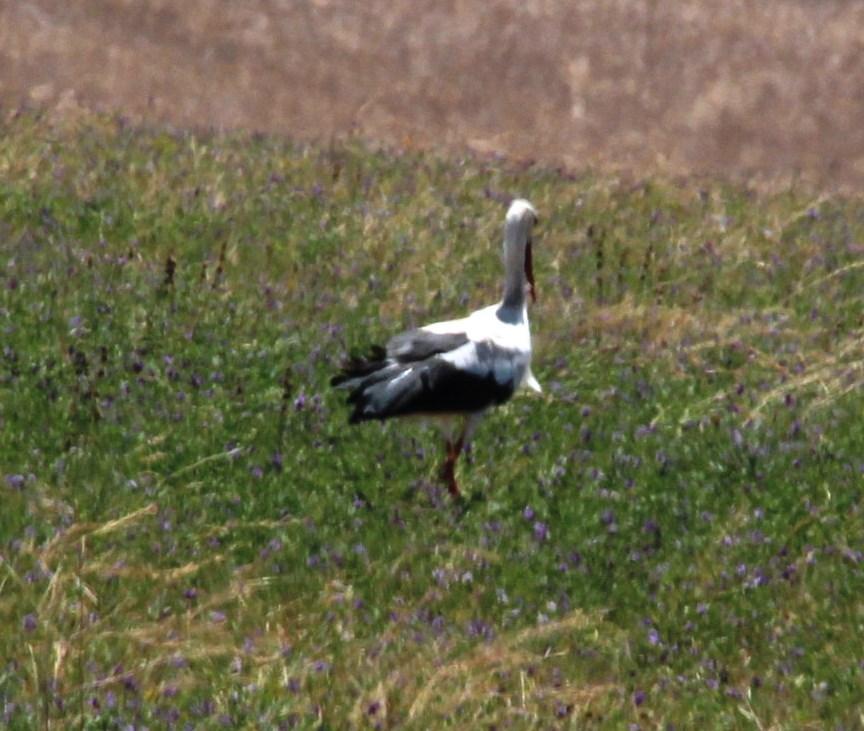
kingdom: Animalia
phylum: Chordata
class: Aves
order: Ciconiiformes
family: Ciconiidae
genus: Ciconia
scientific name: Ciconia ciconia
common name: White stork
